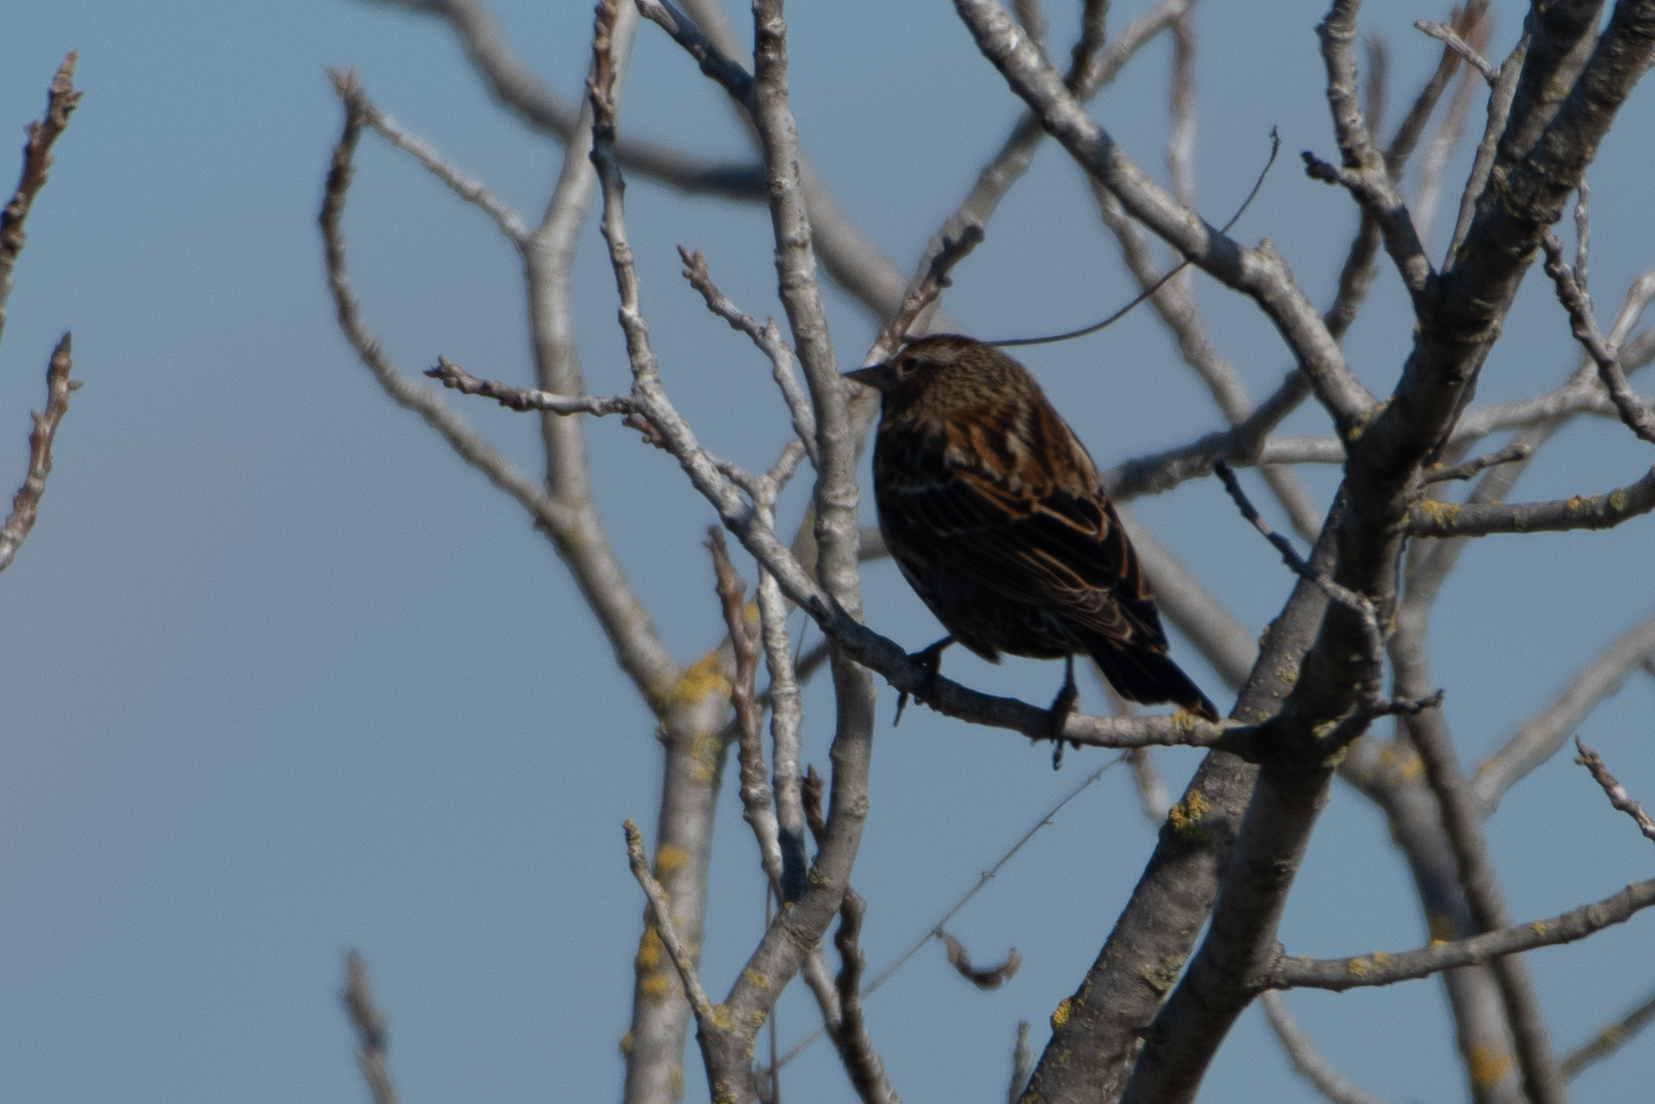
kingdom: Animalia
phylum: Chordata
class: Aves
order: Passeriformes
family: Icteridae
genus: Agelaius
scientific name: Agelaius phoeniceus
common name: Red-winged blackbird
